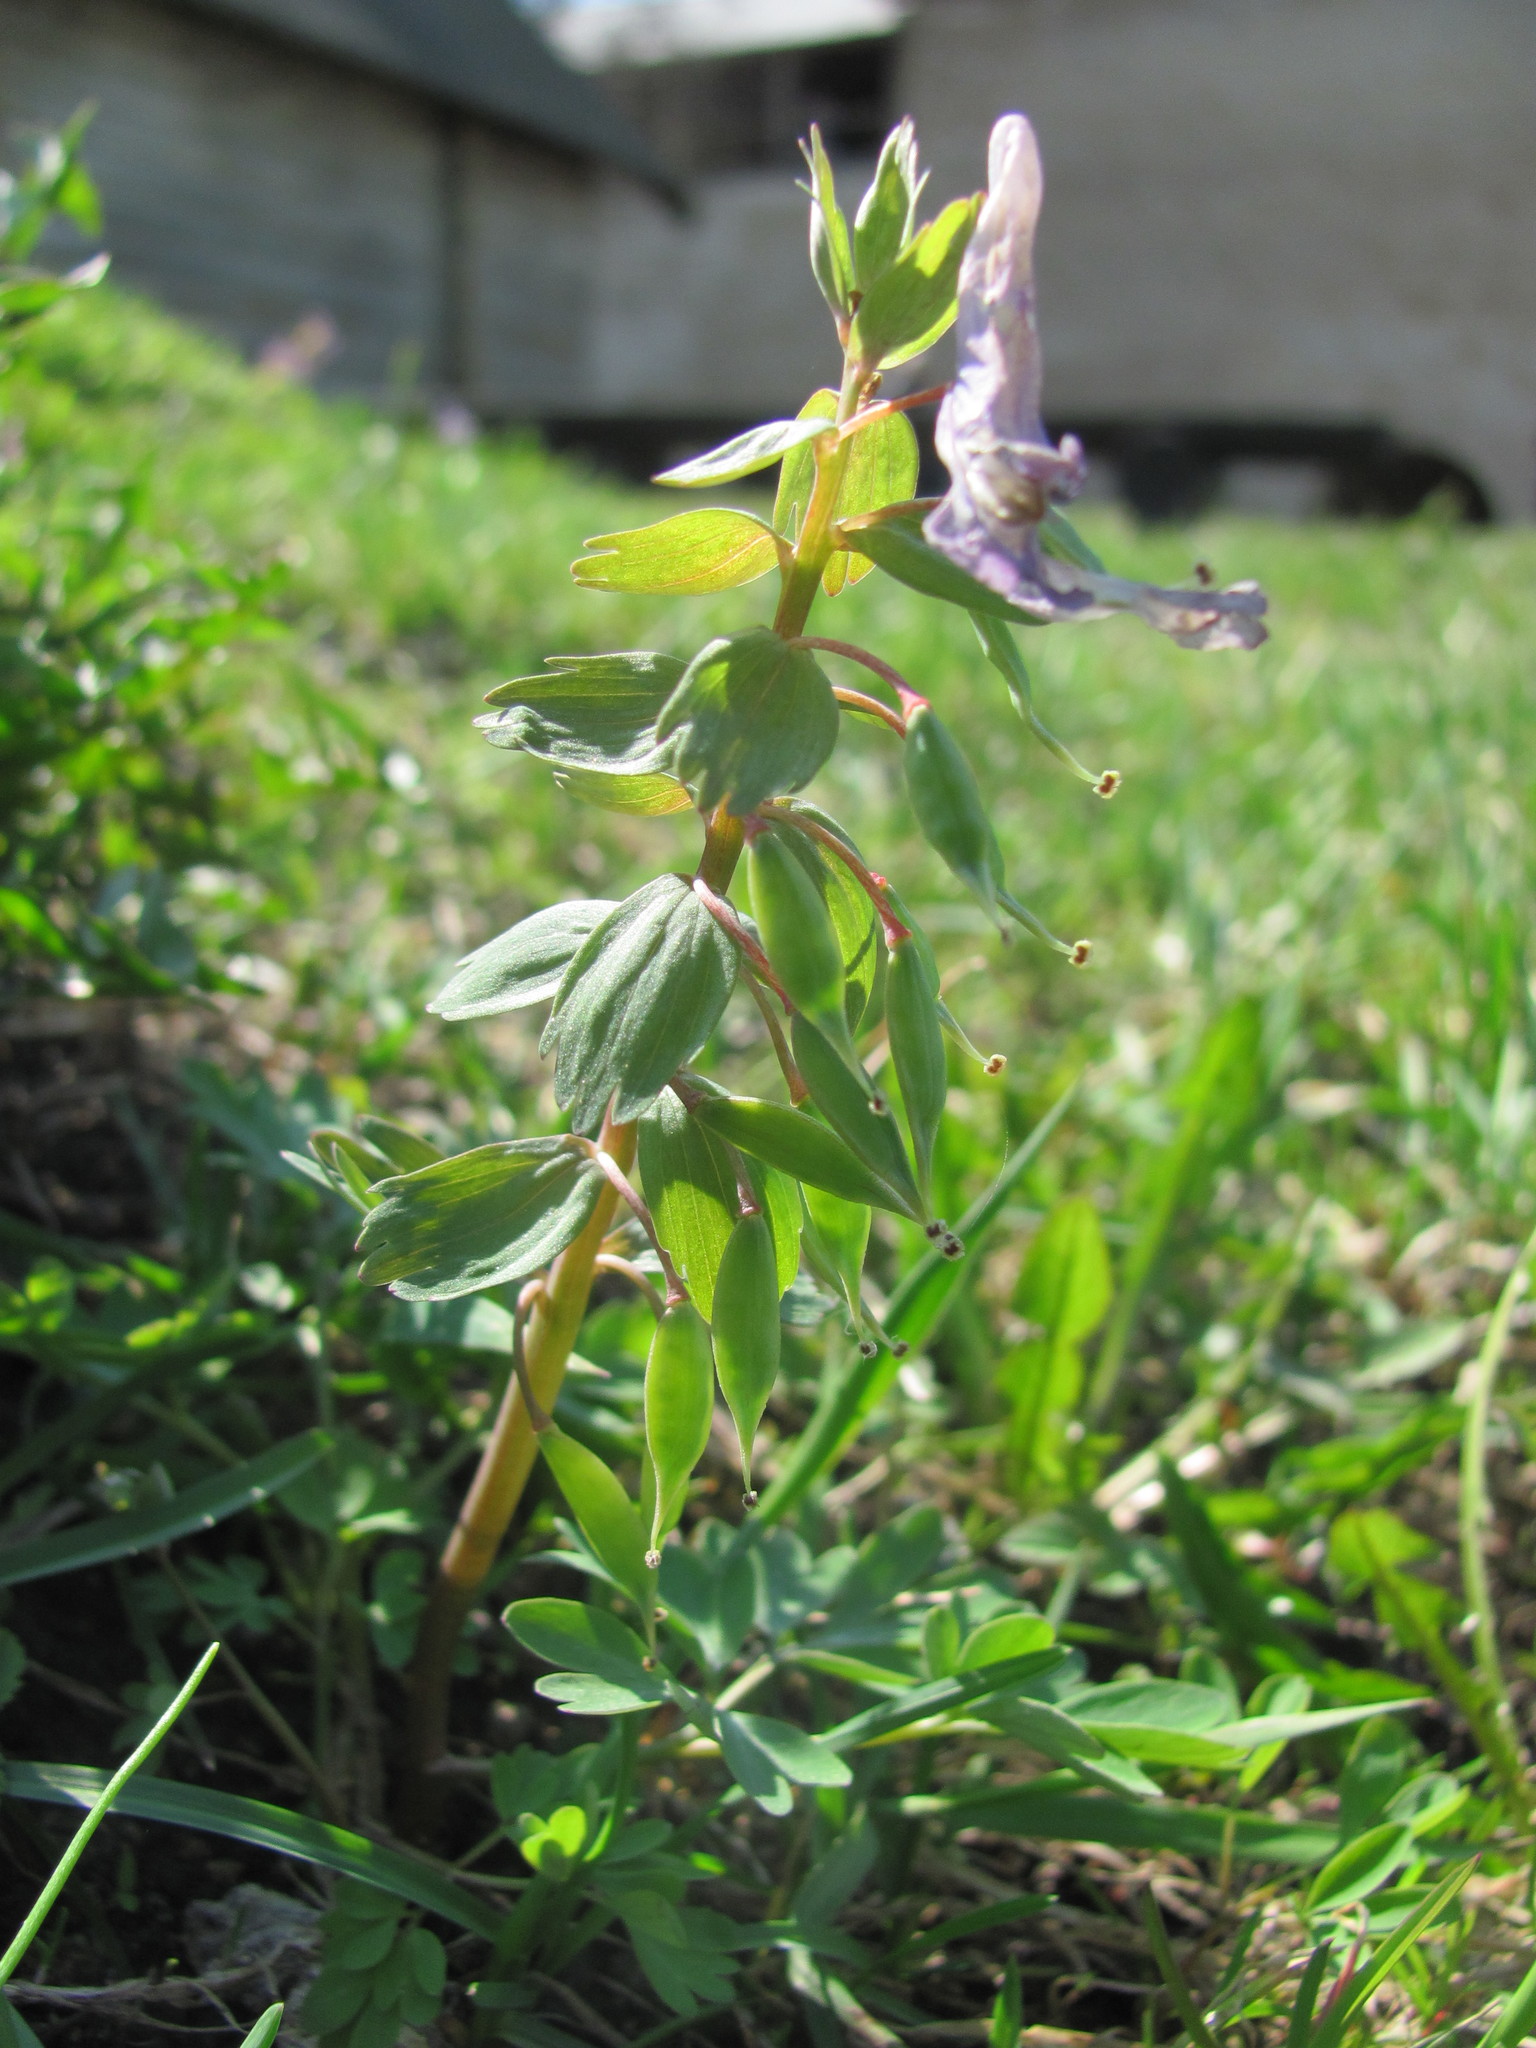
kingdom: Plantae
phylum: Tracheophyta
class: Magnoliopsida
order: Ranunculales
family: Papaveraceae
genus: Corydalis
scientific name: Corydalis solida
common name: Bird-in-a-bush
